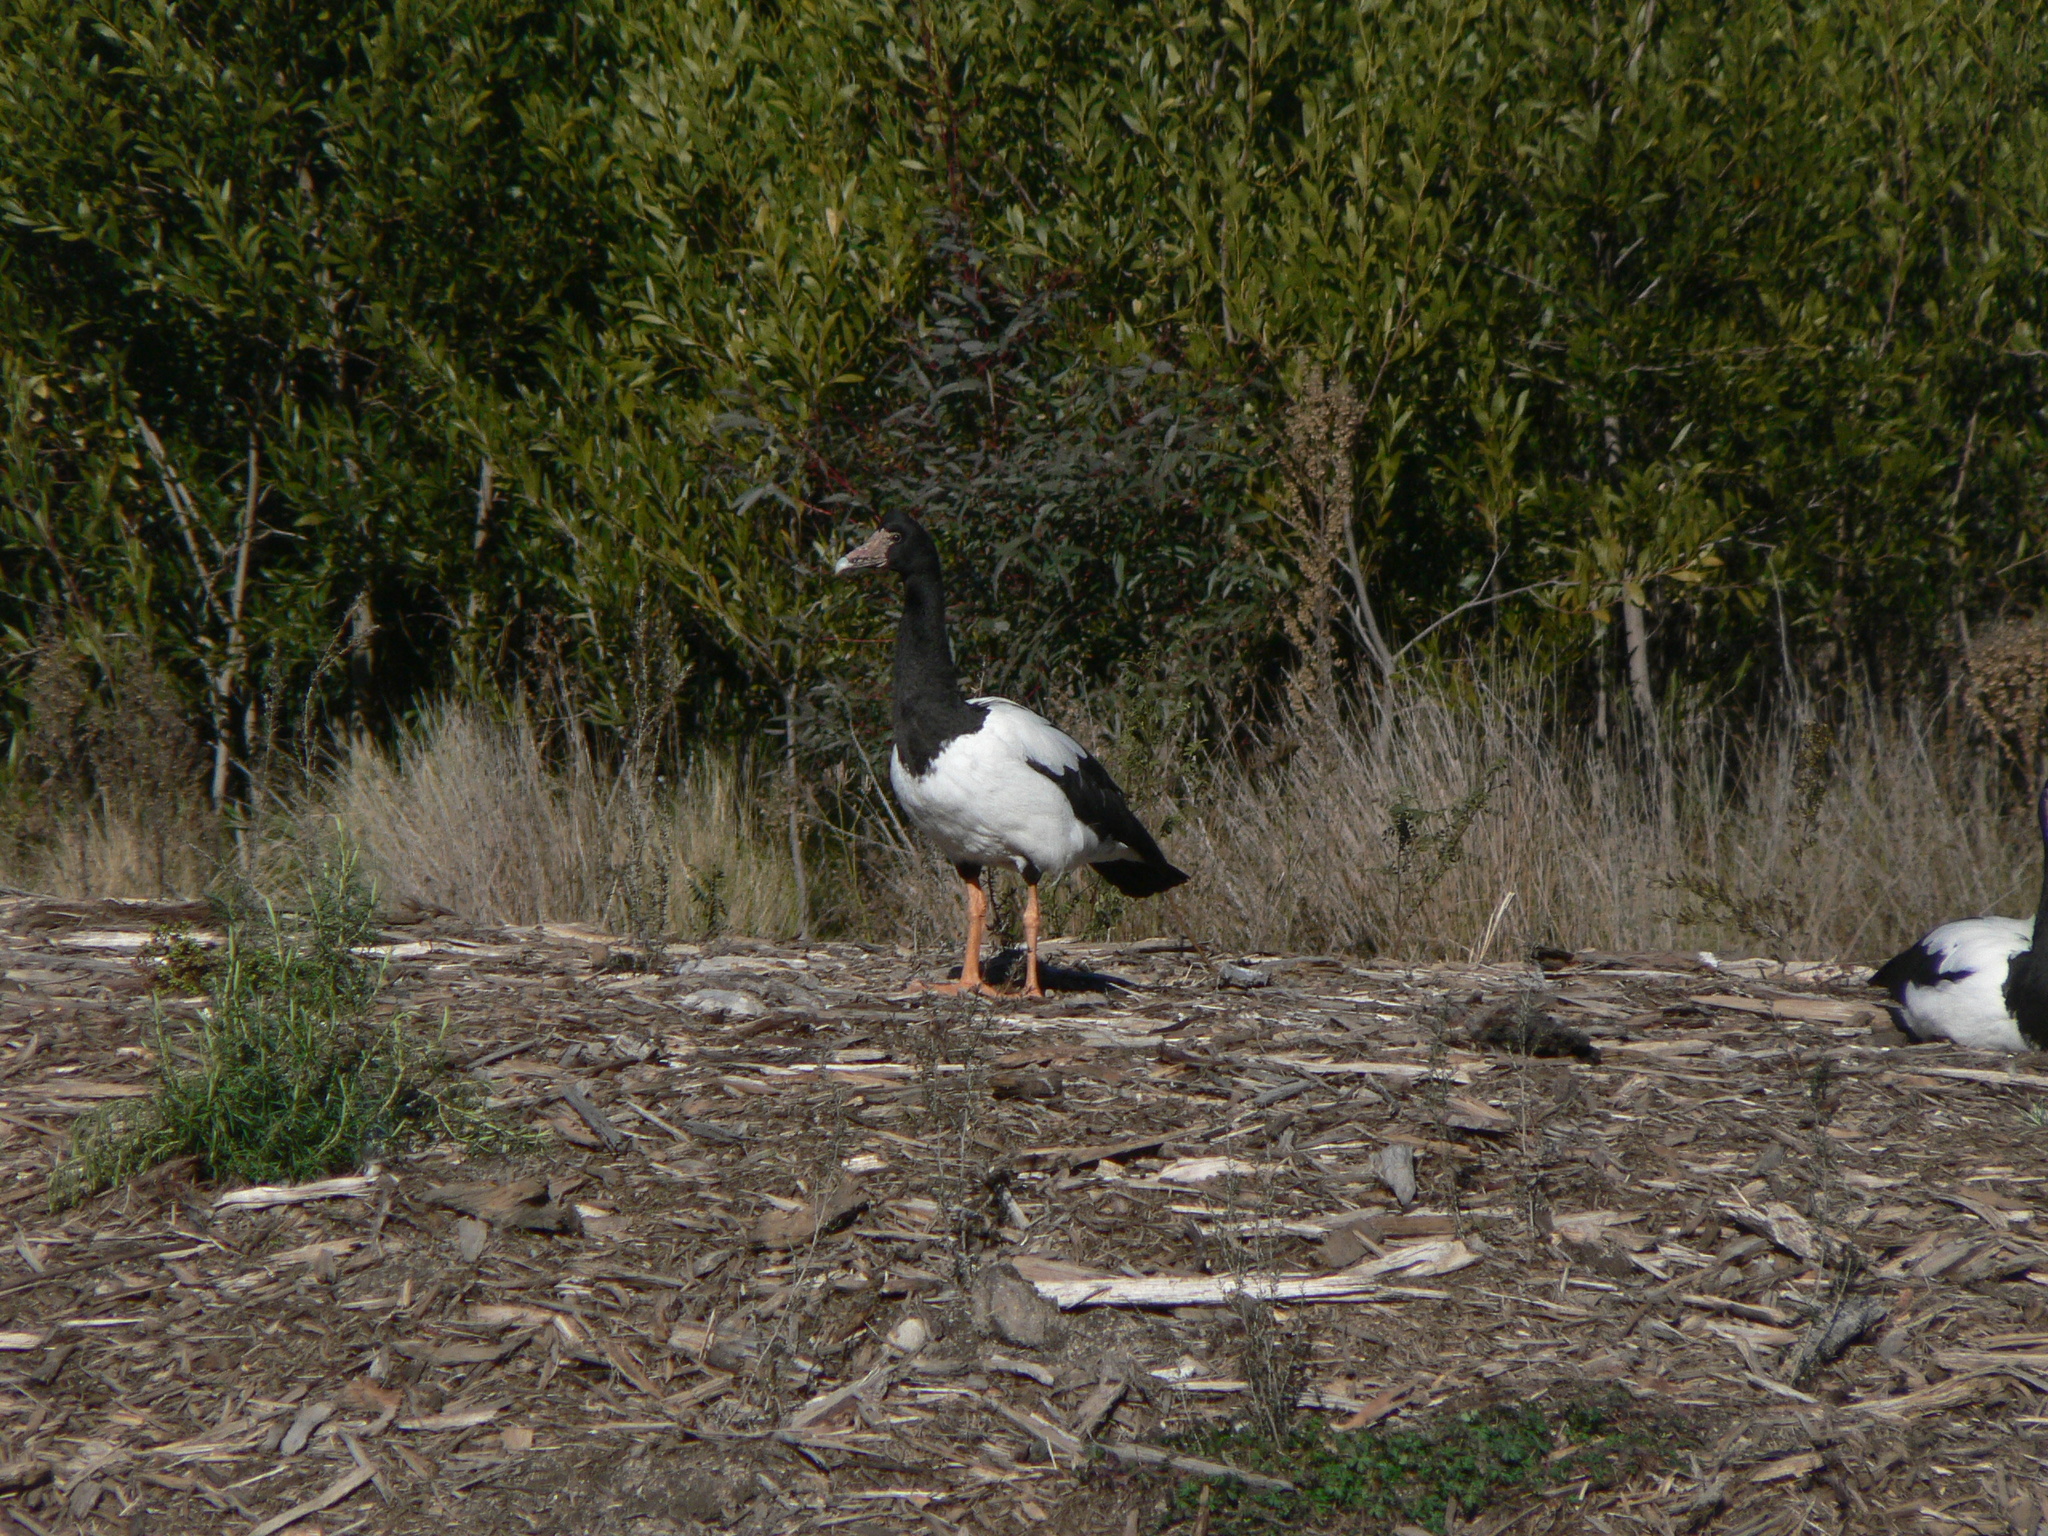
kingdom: Animalia
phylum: Chordata
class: Aves
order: Anseriformes
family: Anseranatidae
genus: Anseranas
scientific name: Anseranas semipalmata
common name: Magpie goose
